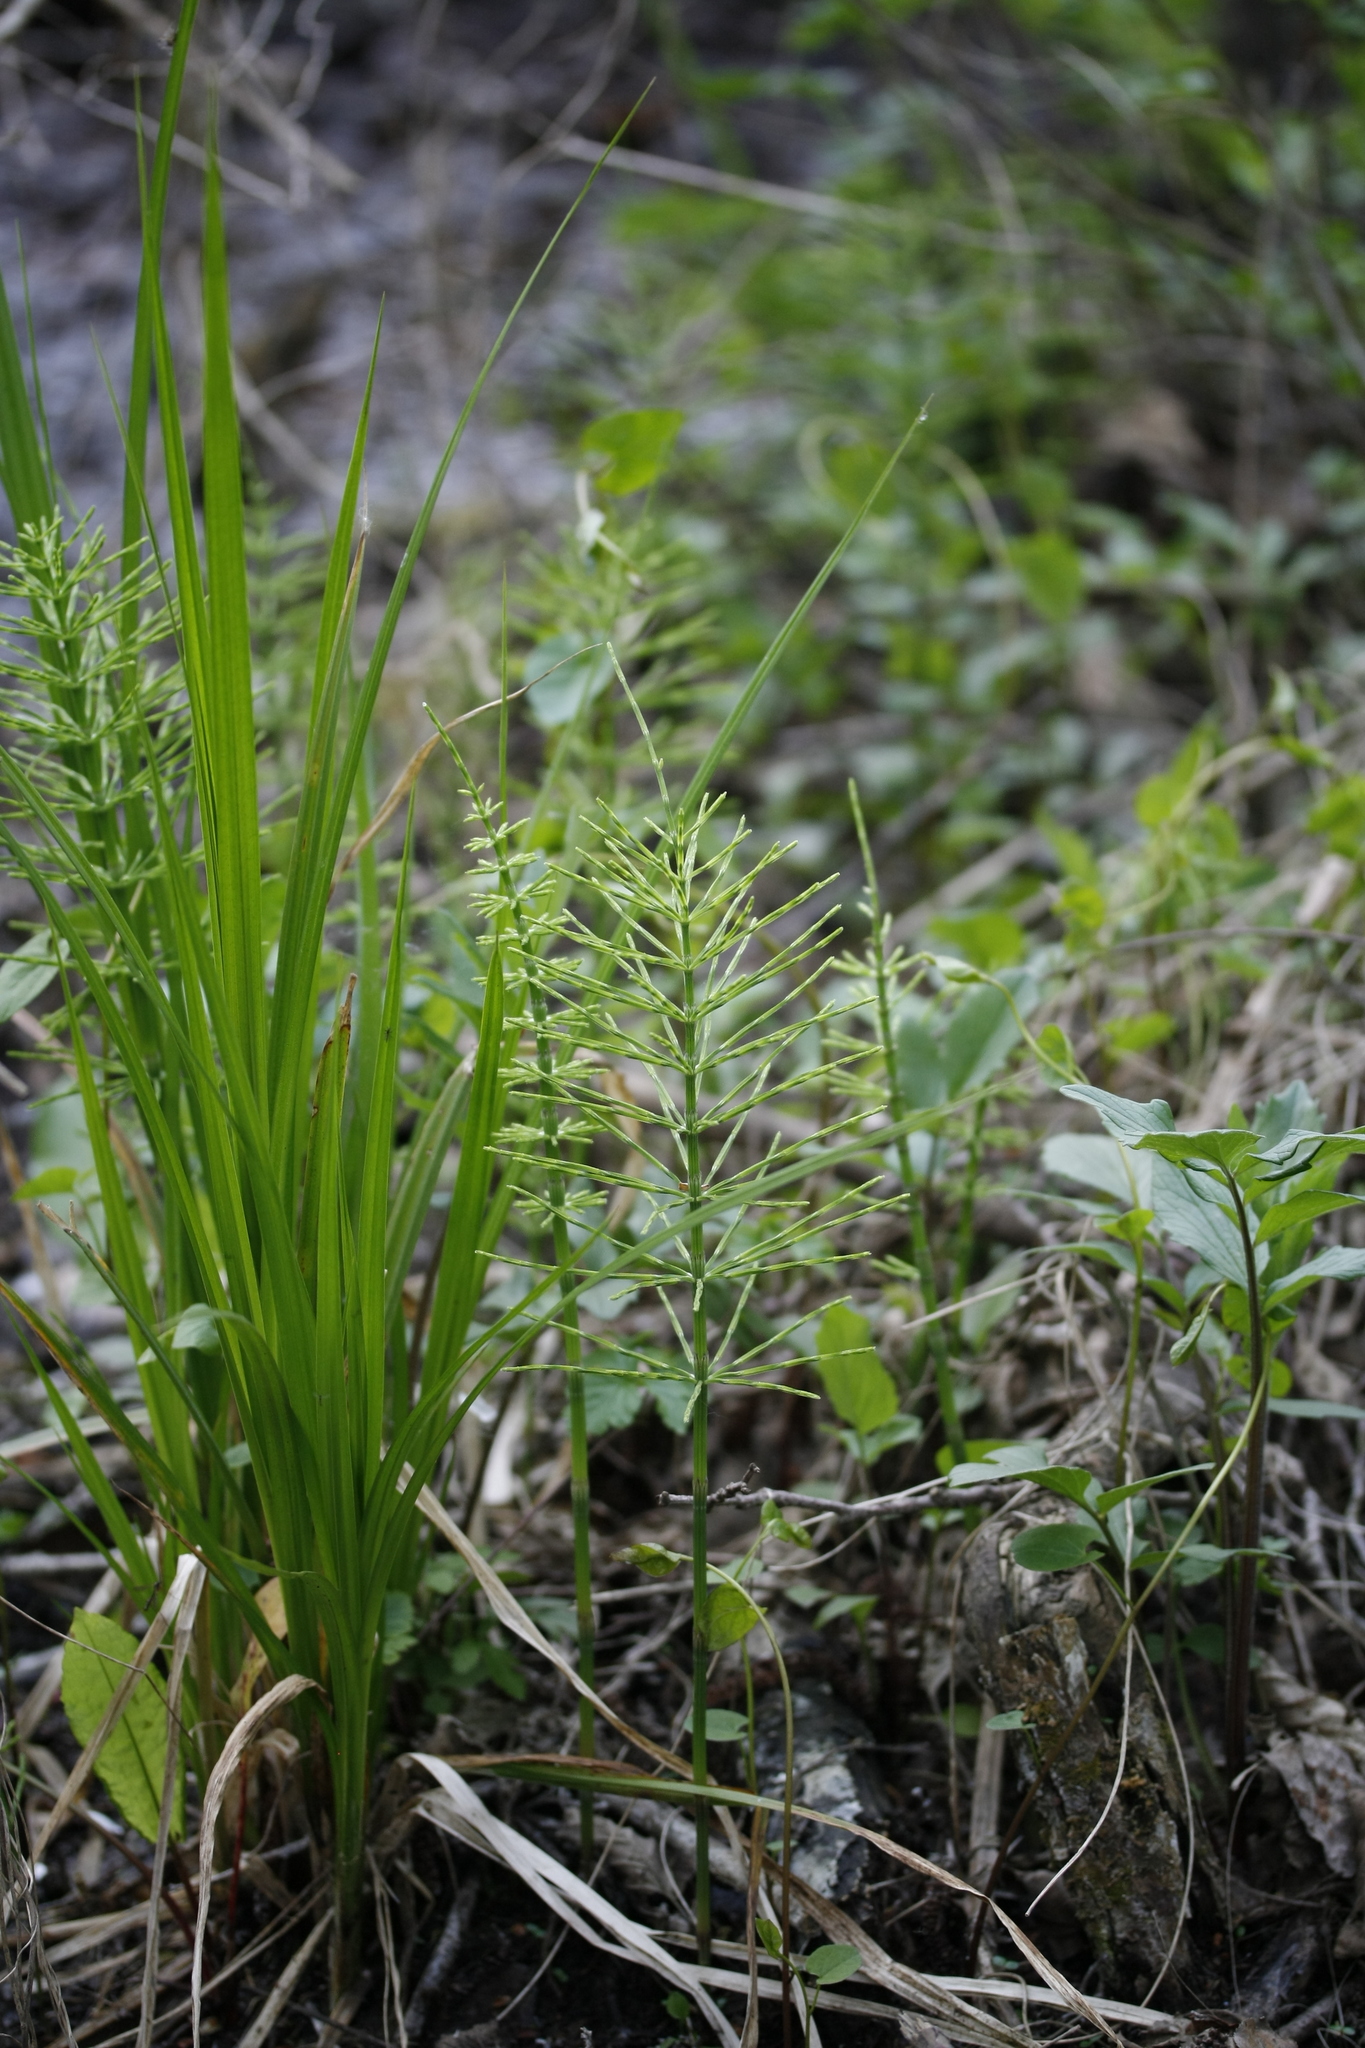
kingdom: Plantae
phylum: Tracheophyta
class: Polypodiopsida
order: Equisetales
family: Equisetaceae
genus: Equisetum
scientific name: Equisetum arvense
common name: Field horsetail
